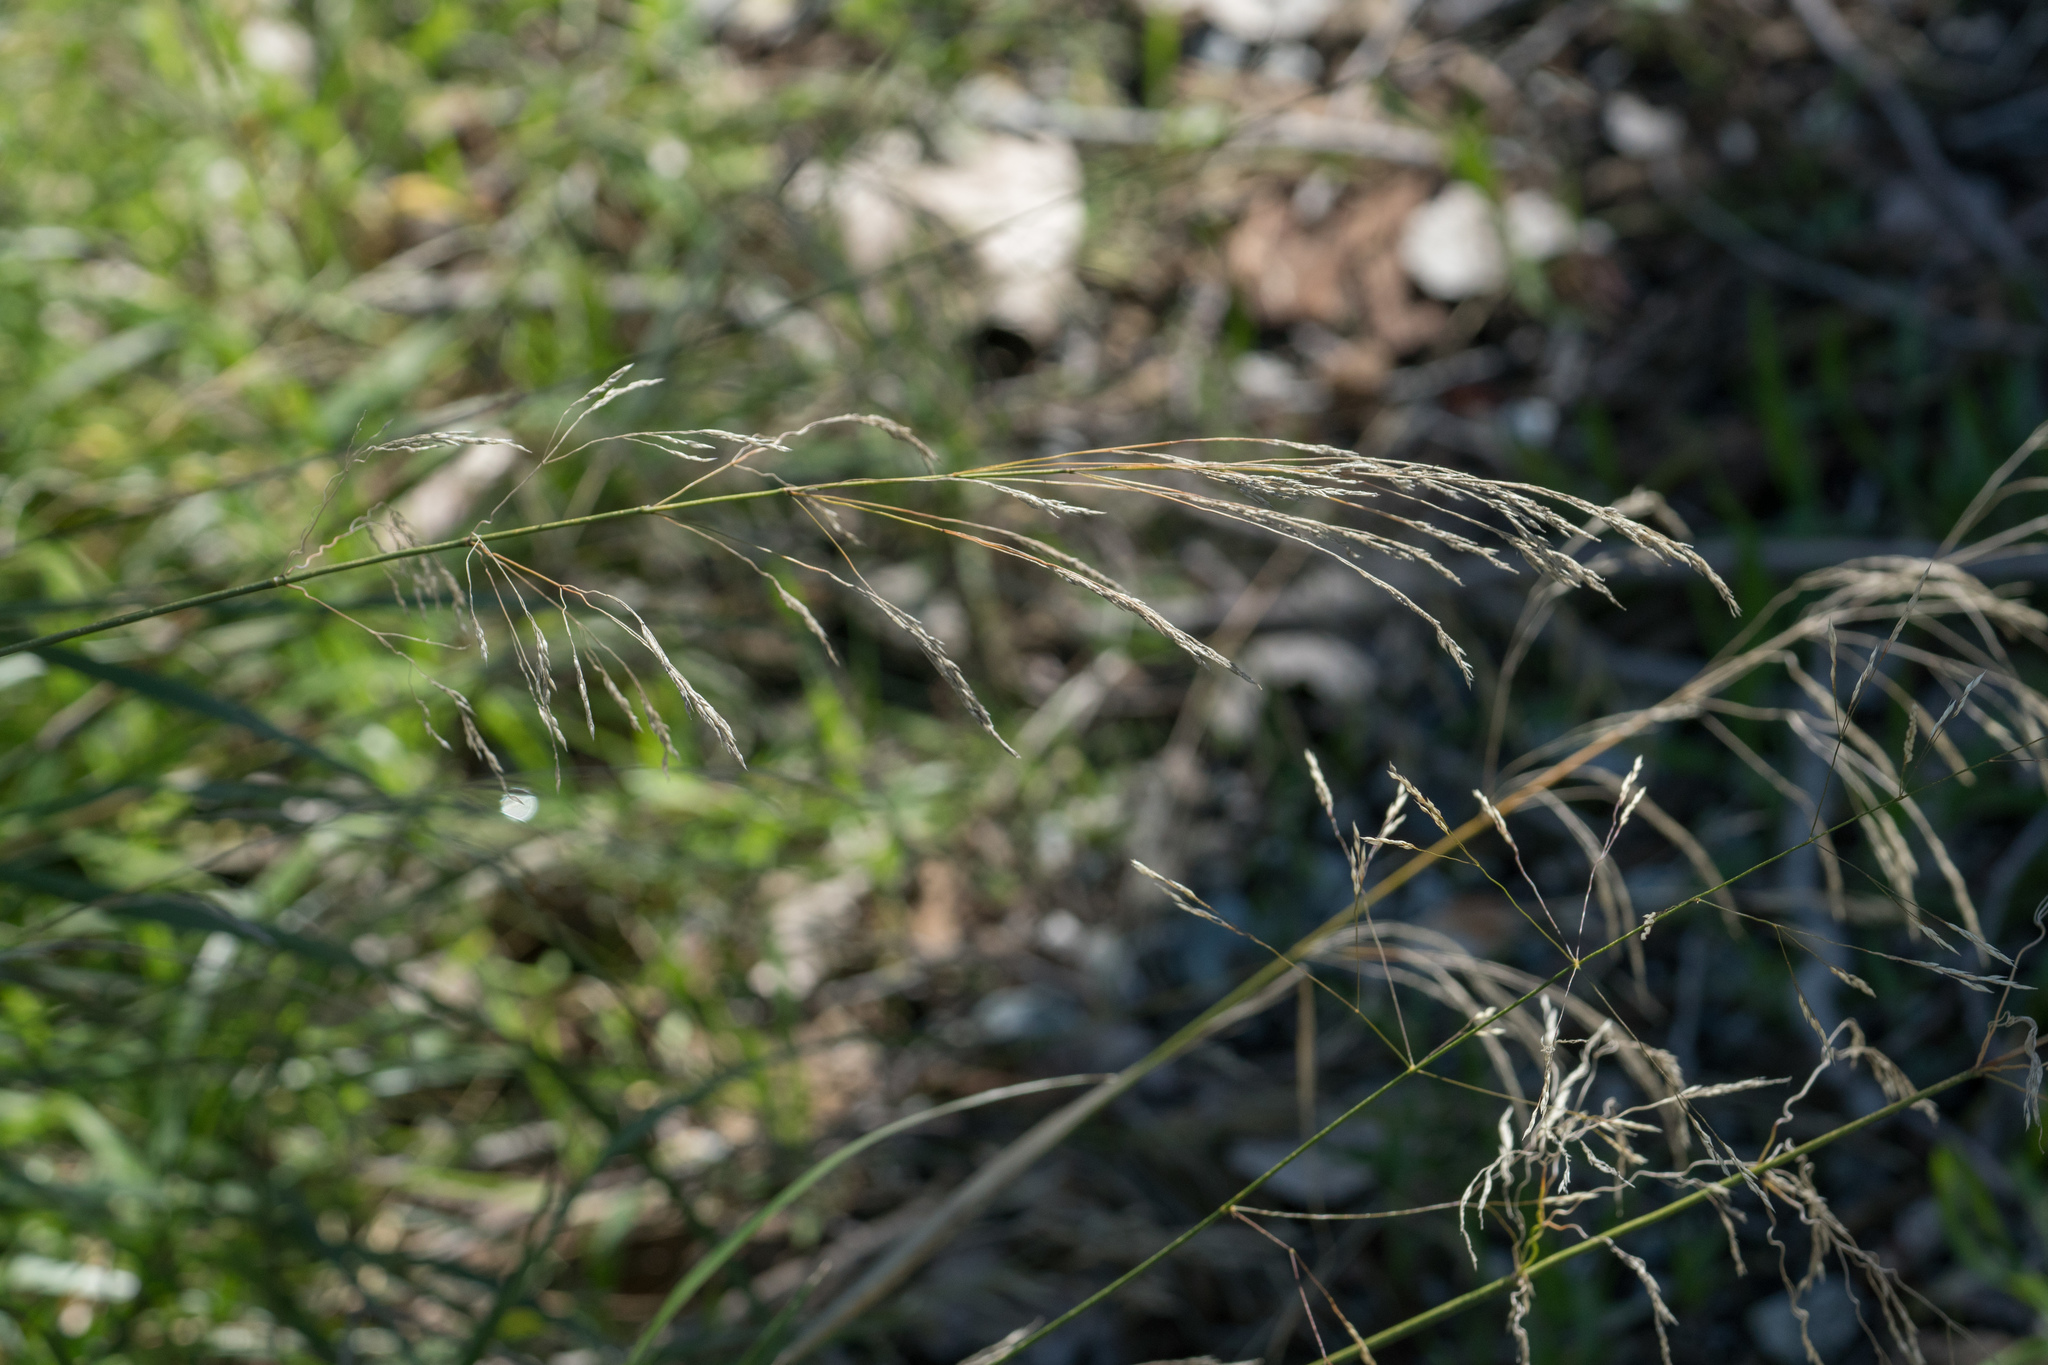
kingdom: Plantae
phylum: Tracheophyta
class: Liliopsida
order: Poales
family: Poaceae
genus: Oloptum
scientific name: Oloptum miliaceum
